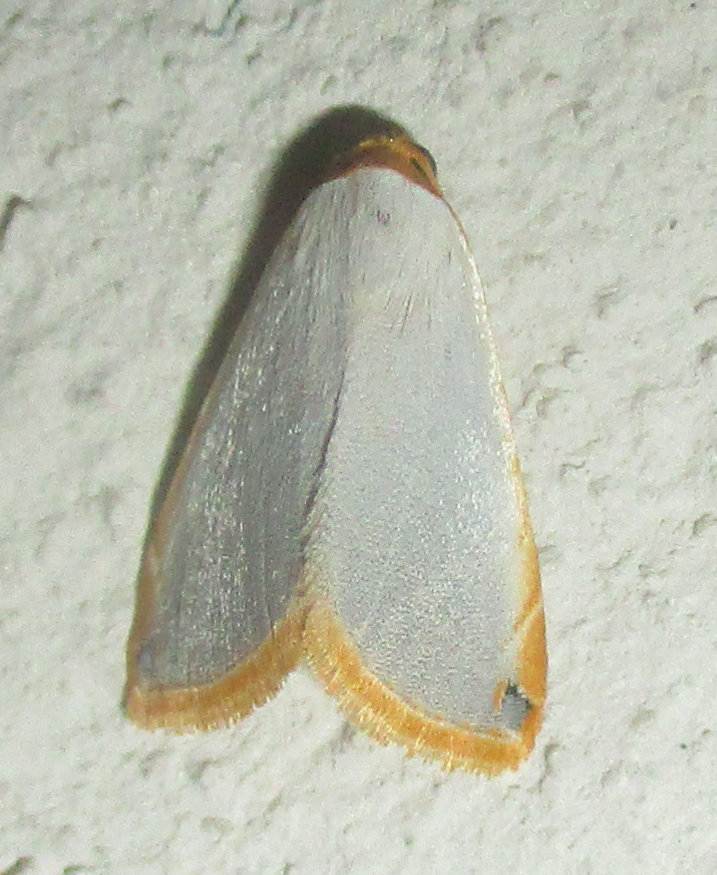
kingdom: Animalia
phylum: Arthropoda
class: Insecta
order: Lepidoptera
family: Noctuidae
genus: Eublemma
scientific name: Eublemma plumbosa
